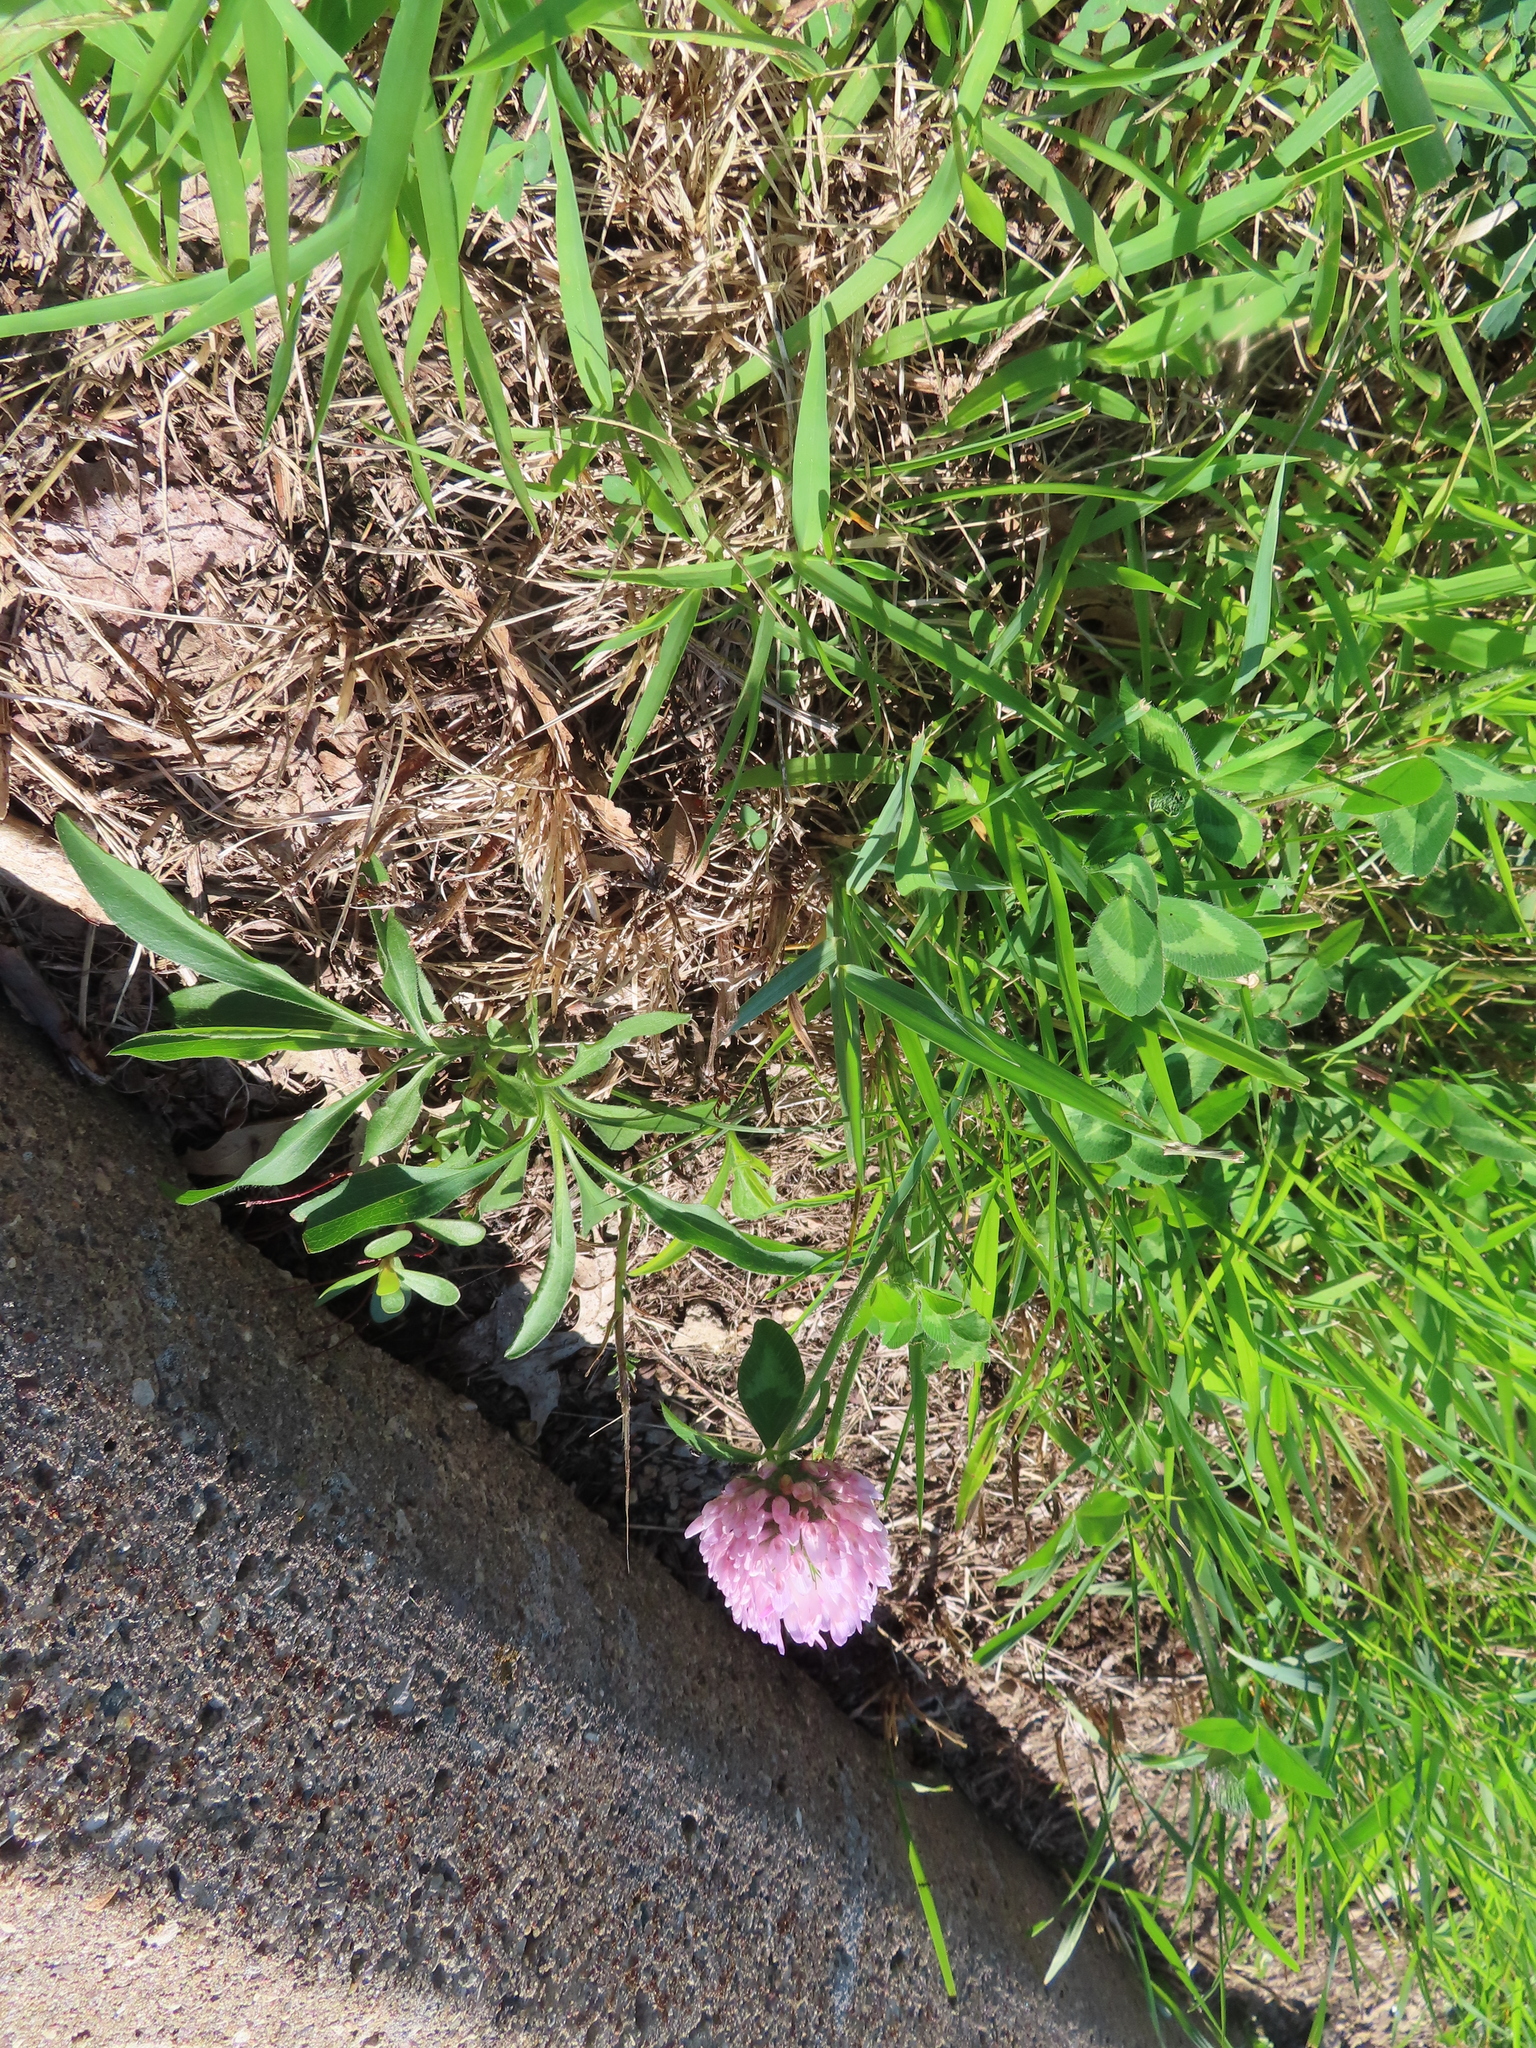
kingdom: Plantae
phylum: Tracheophyta
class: Magnoliopsida
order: Fabales
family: Fabaceae
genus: Trifolium
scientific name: Trifolium pratense
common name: Red clover
